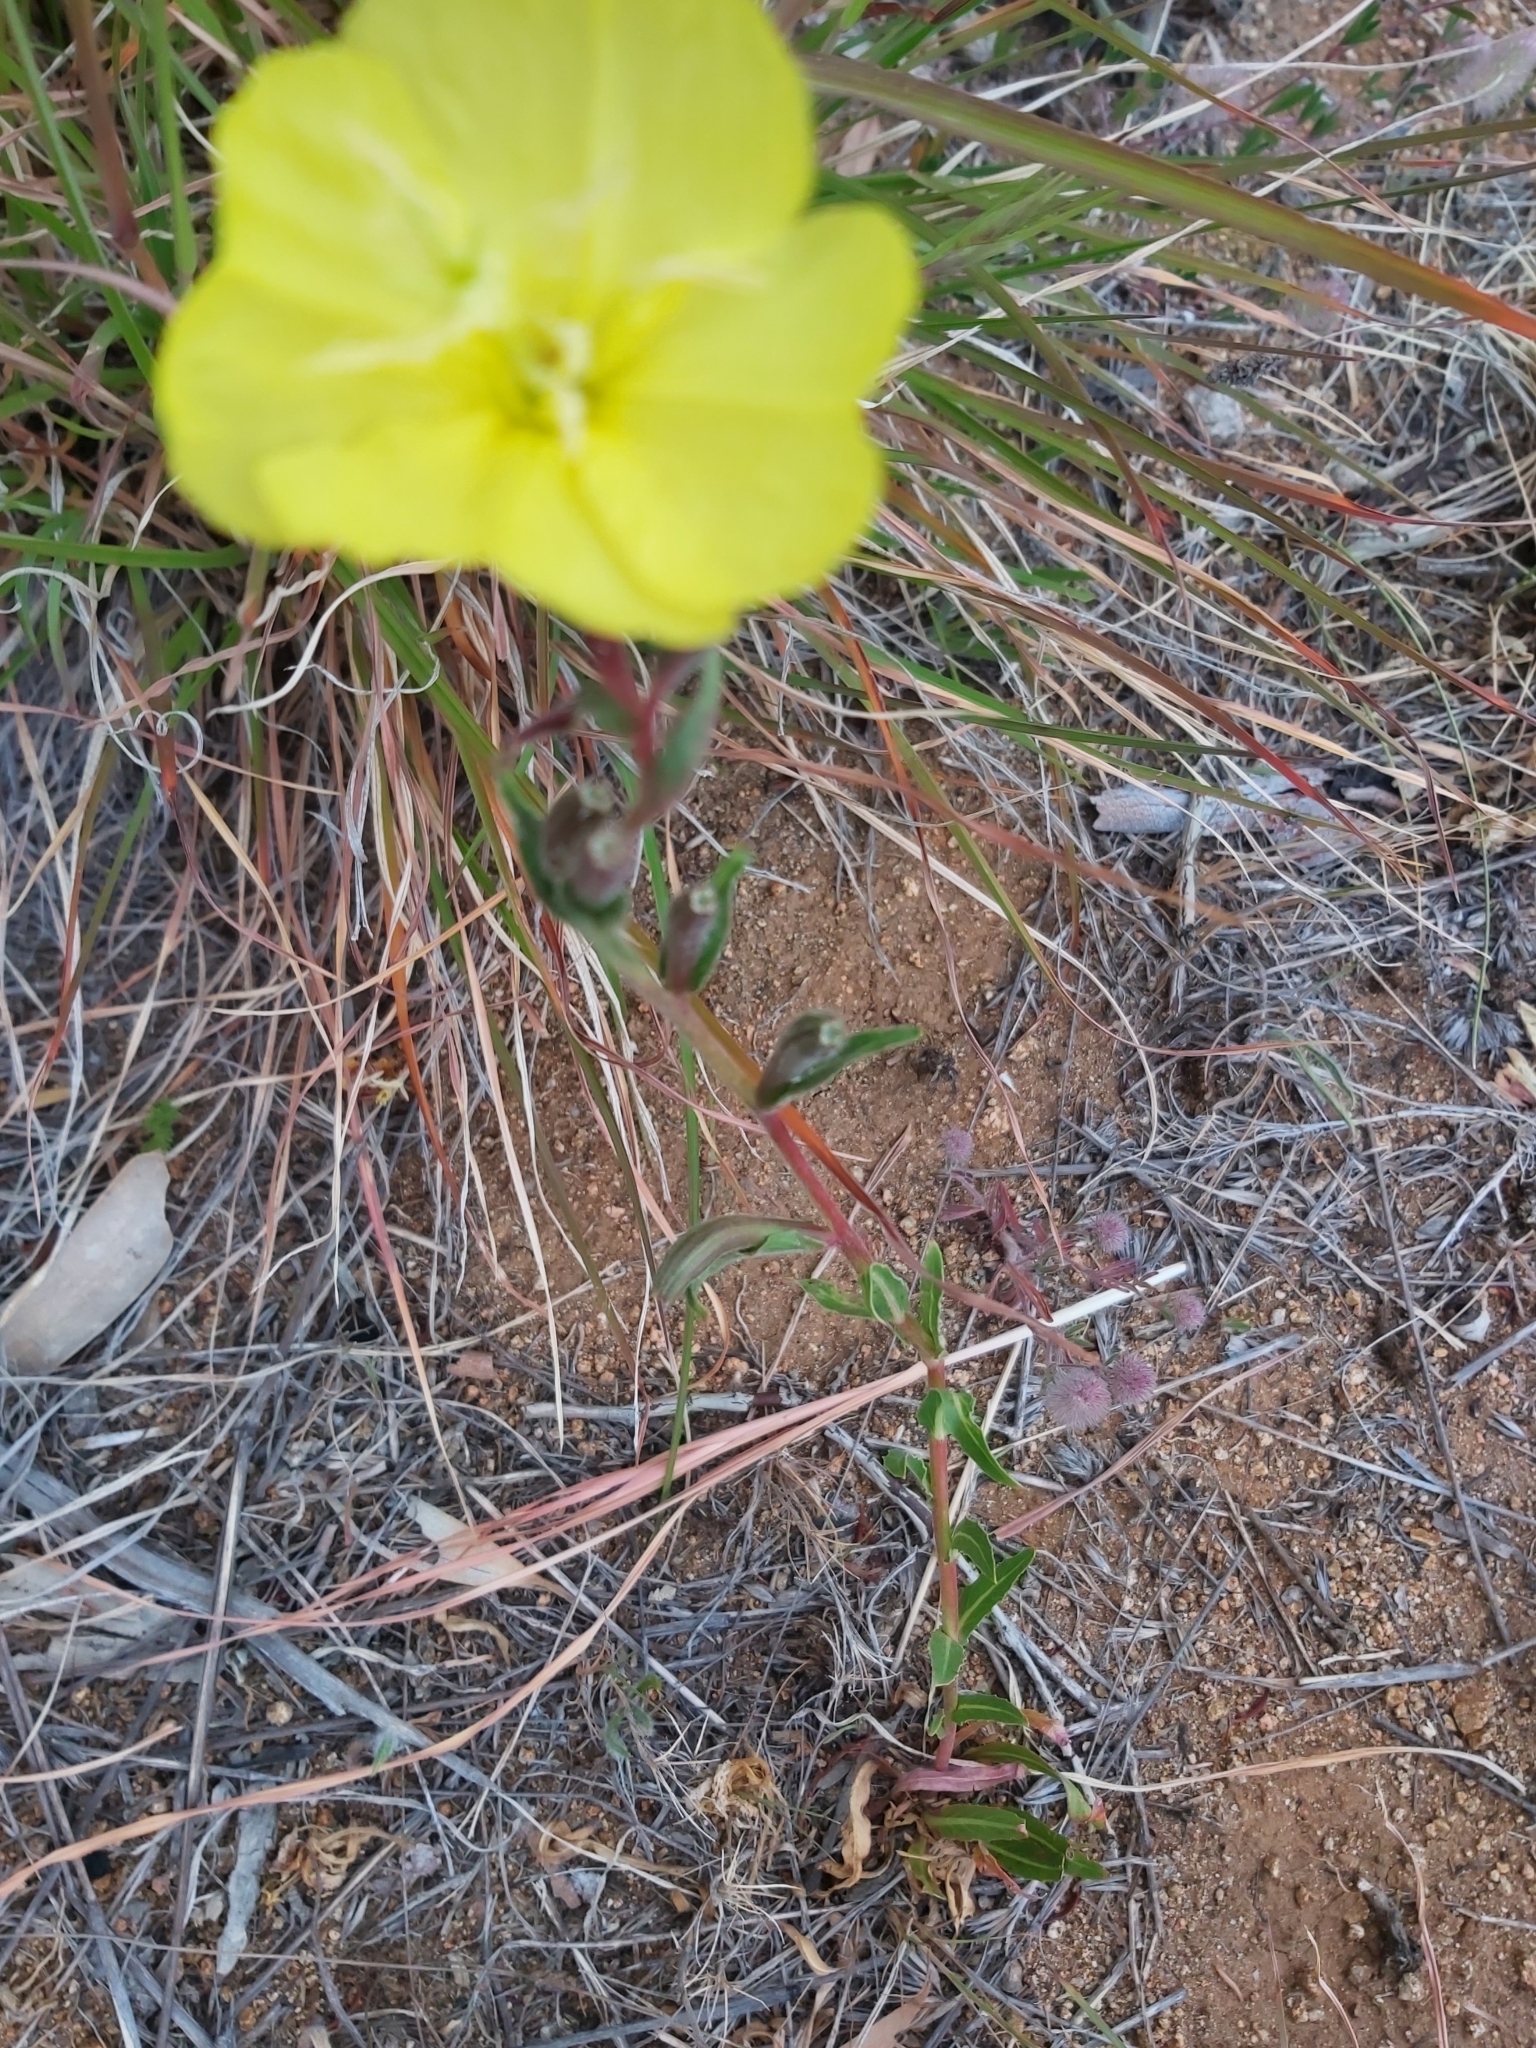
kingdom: Plantae
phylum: Tracheophyta
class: Magnoliopsida
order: Myrtales
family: Onagraceae
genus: Oenothera
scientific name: Oenothera stricta
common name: Fragrant evening-primrose
